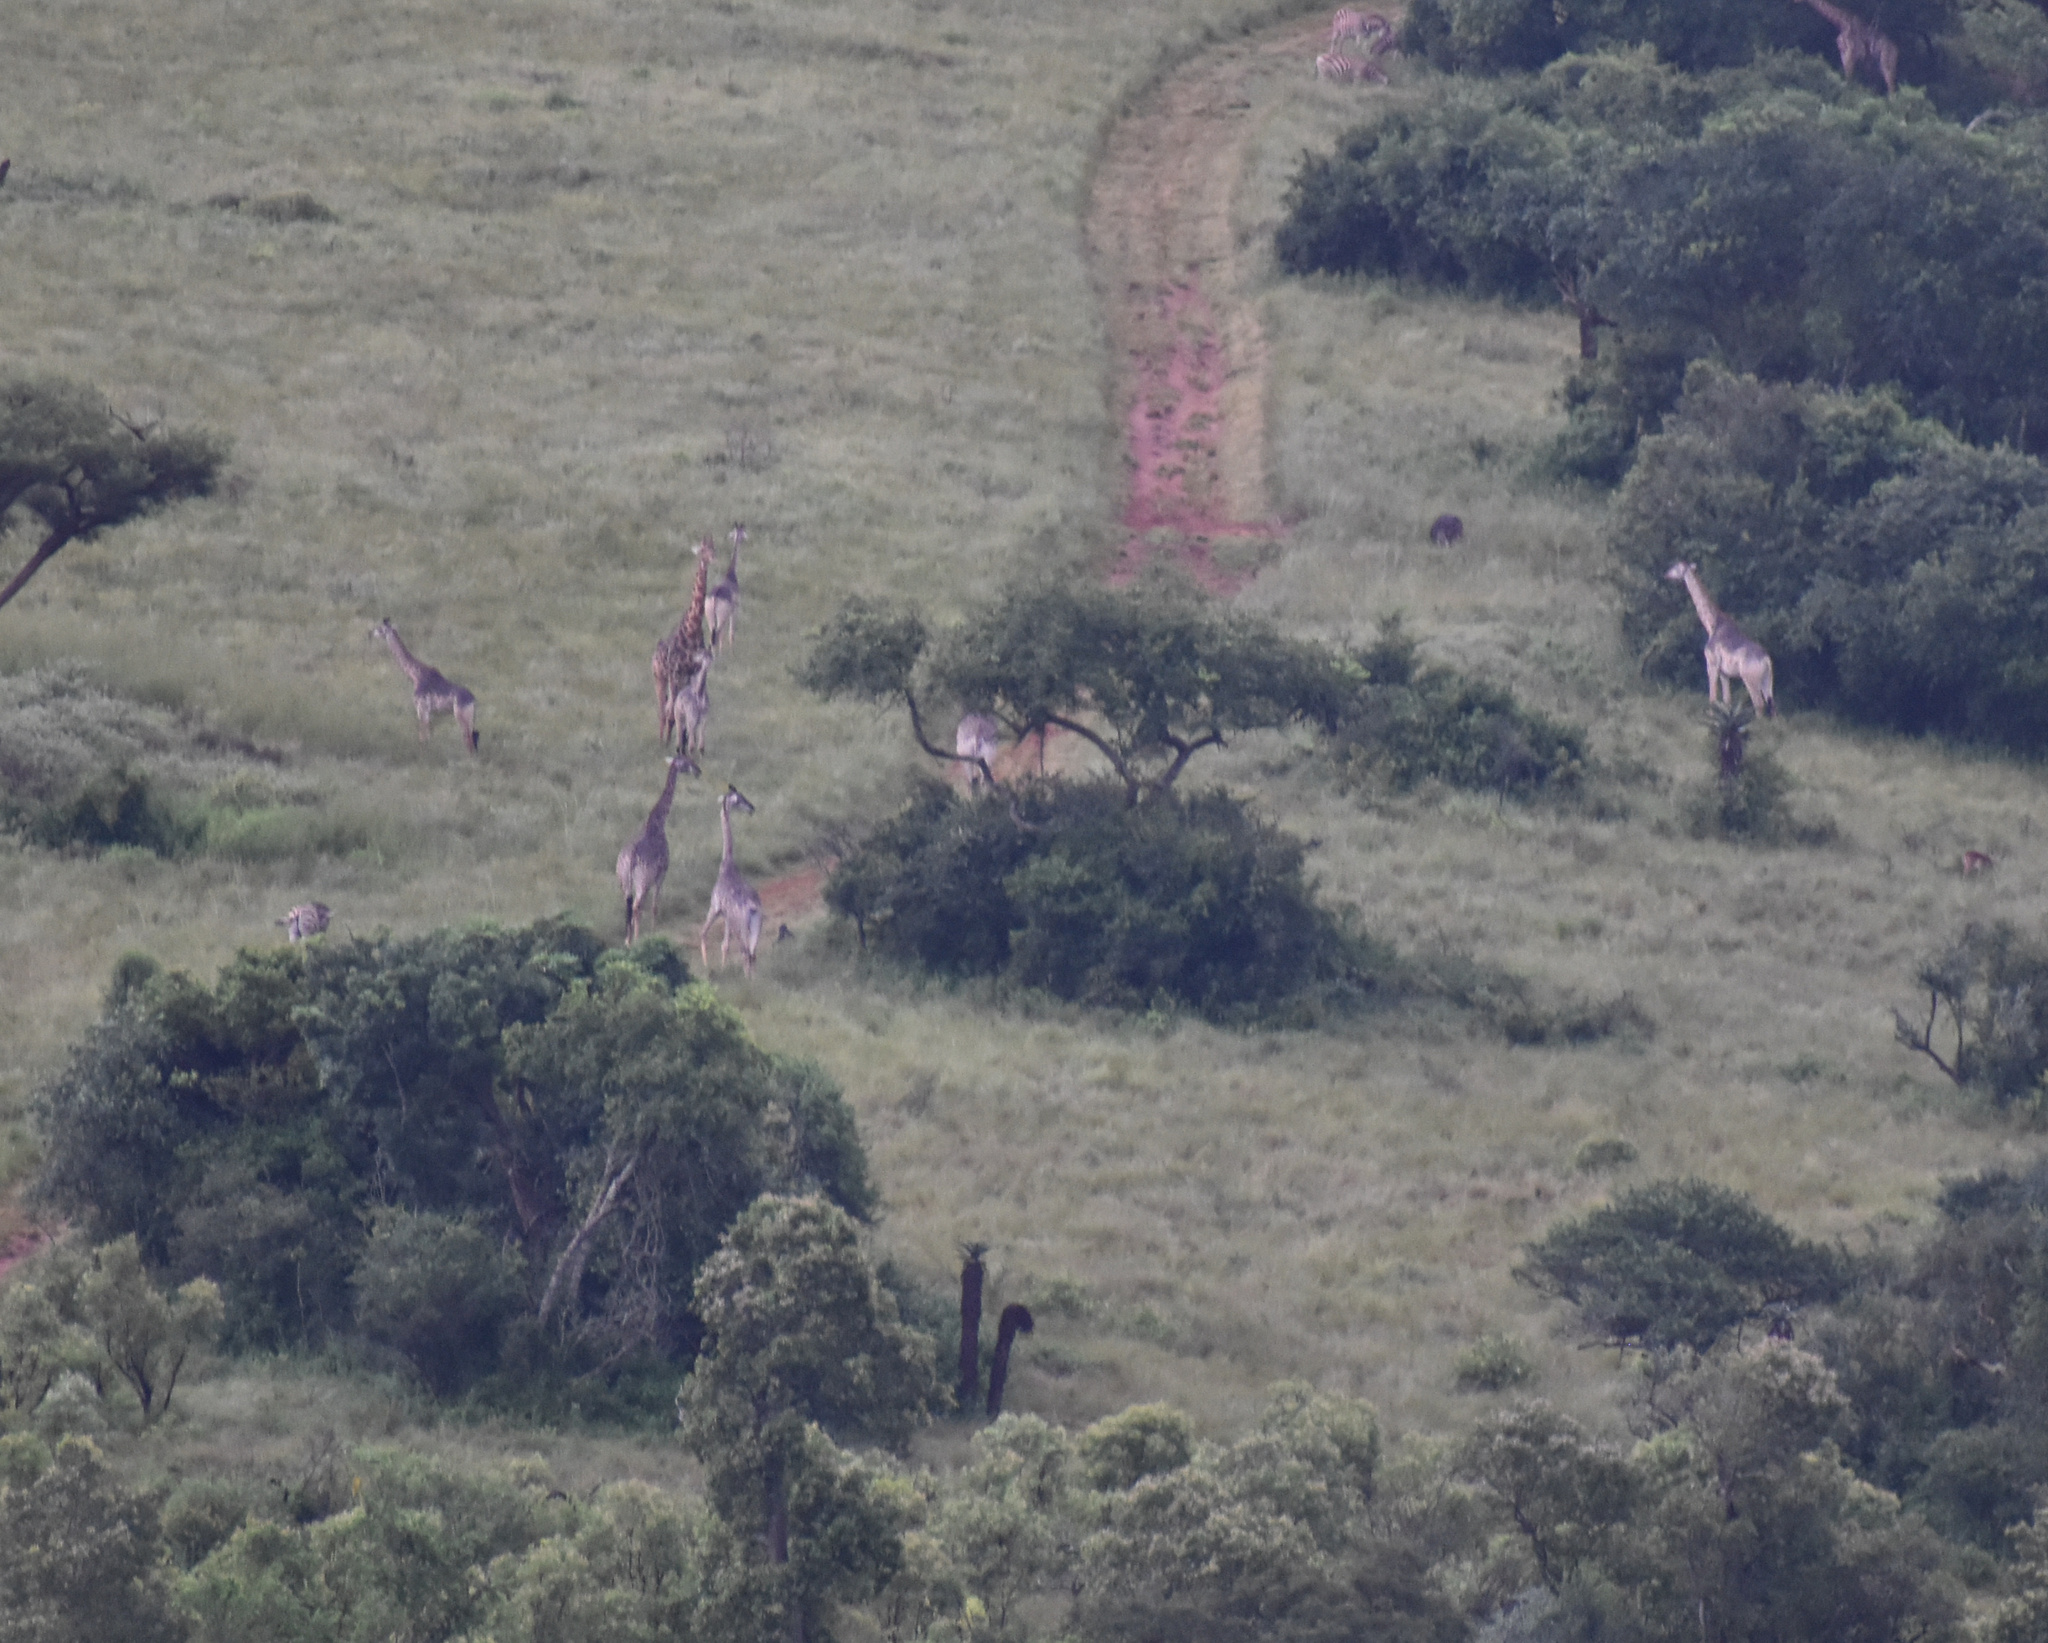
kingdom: Animalia
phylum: Chordata
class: Mammalia
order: Artiodactyla
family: Giraffidae
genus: Giraffa
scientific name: Giraffa giraffa
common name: Southern giraffe
